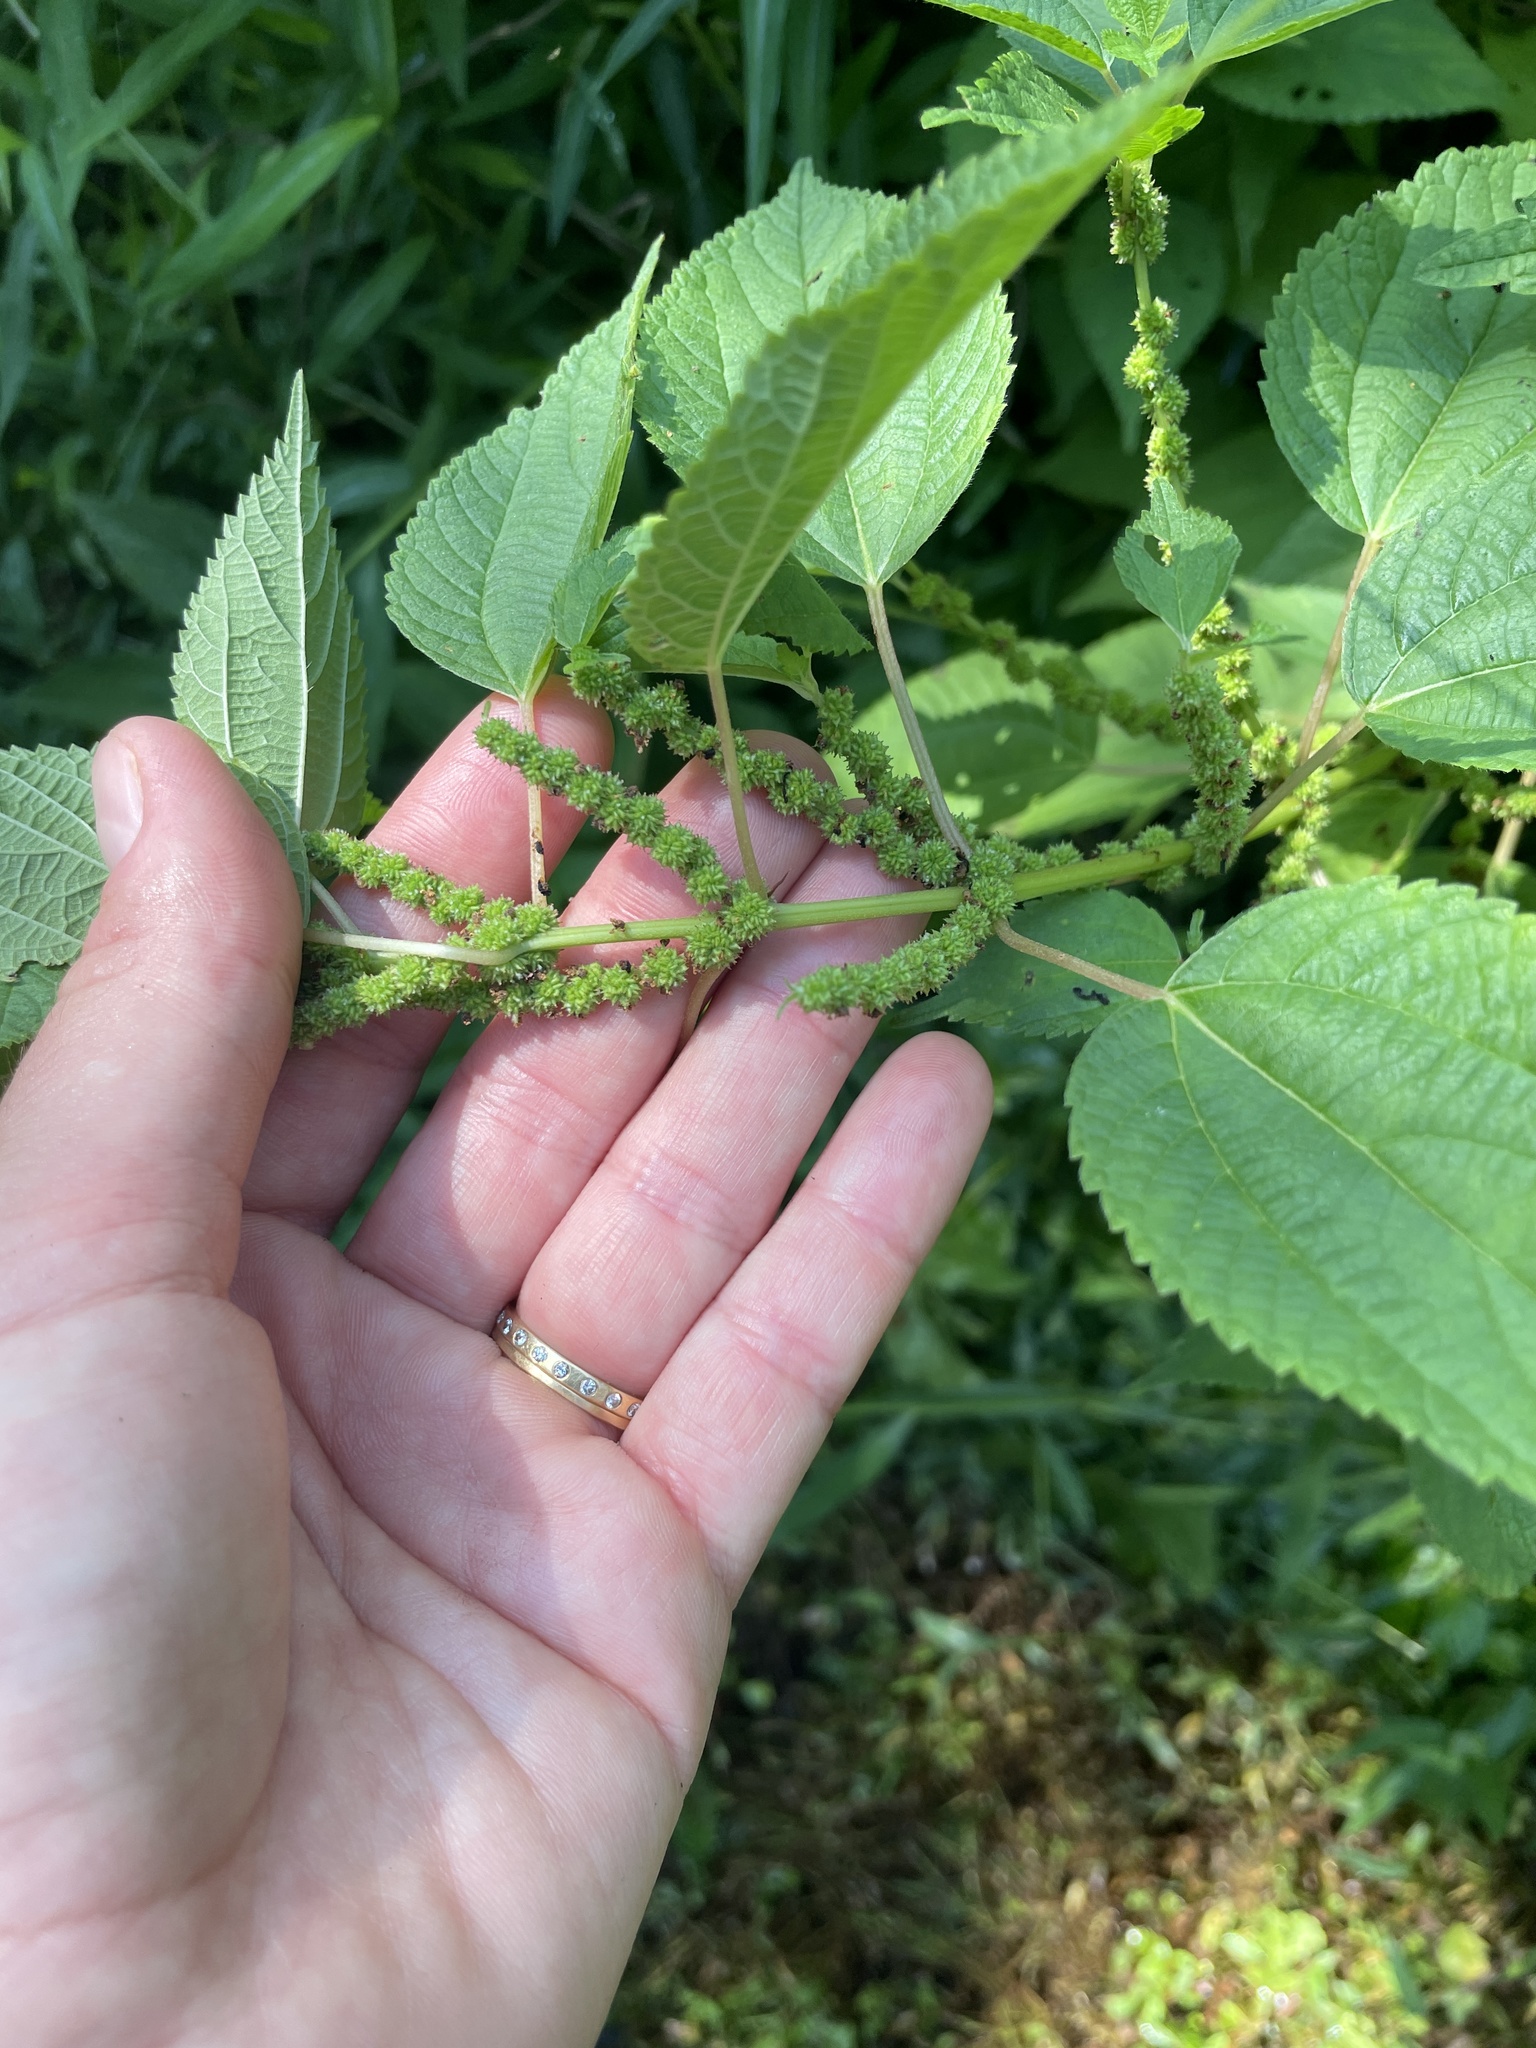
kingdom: Plantae
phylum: Tracheophyta
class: Magnoliopsida
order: Rosales
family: Urticaceae
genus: Boehmeria
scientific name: Boehmeria cylindrica
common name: Bog-hemp
